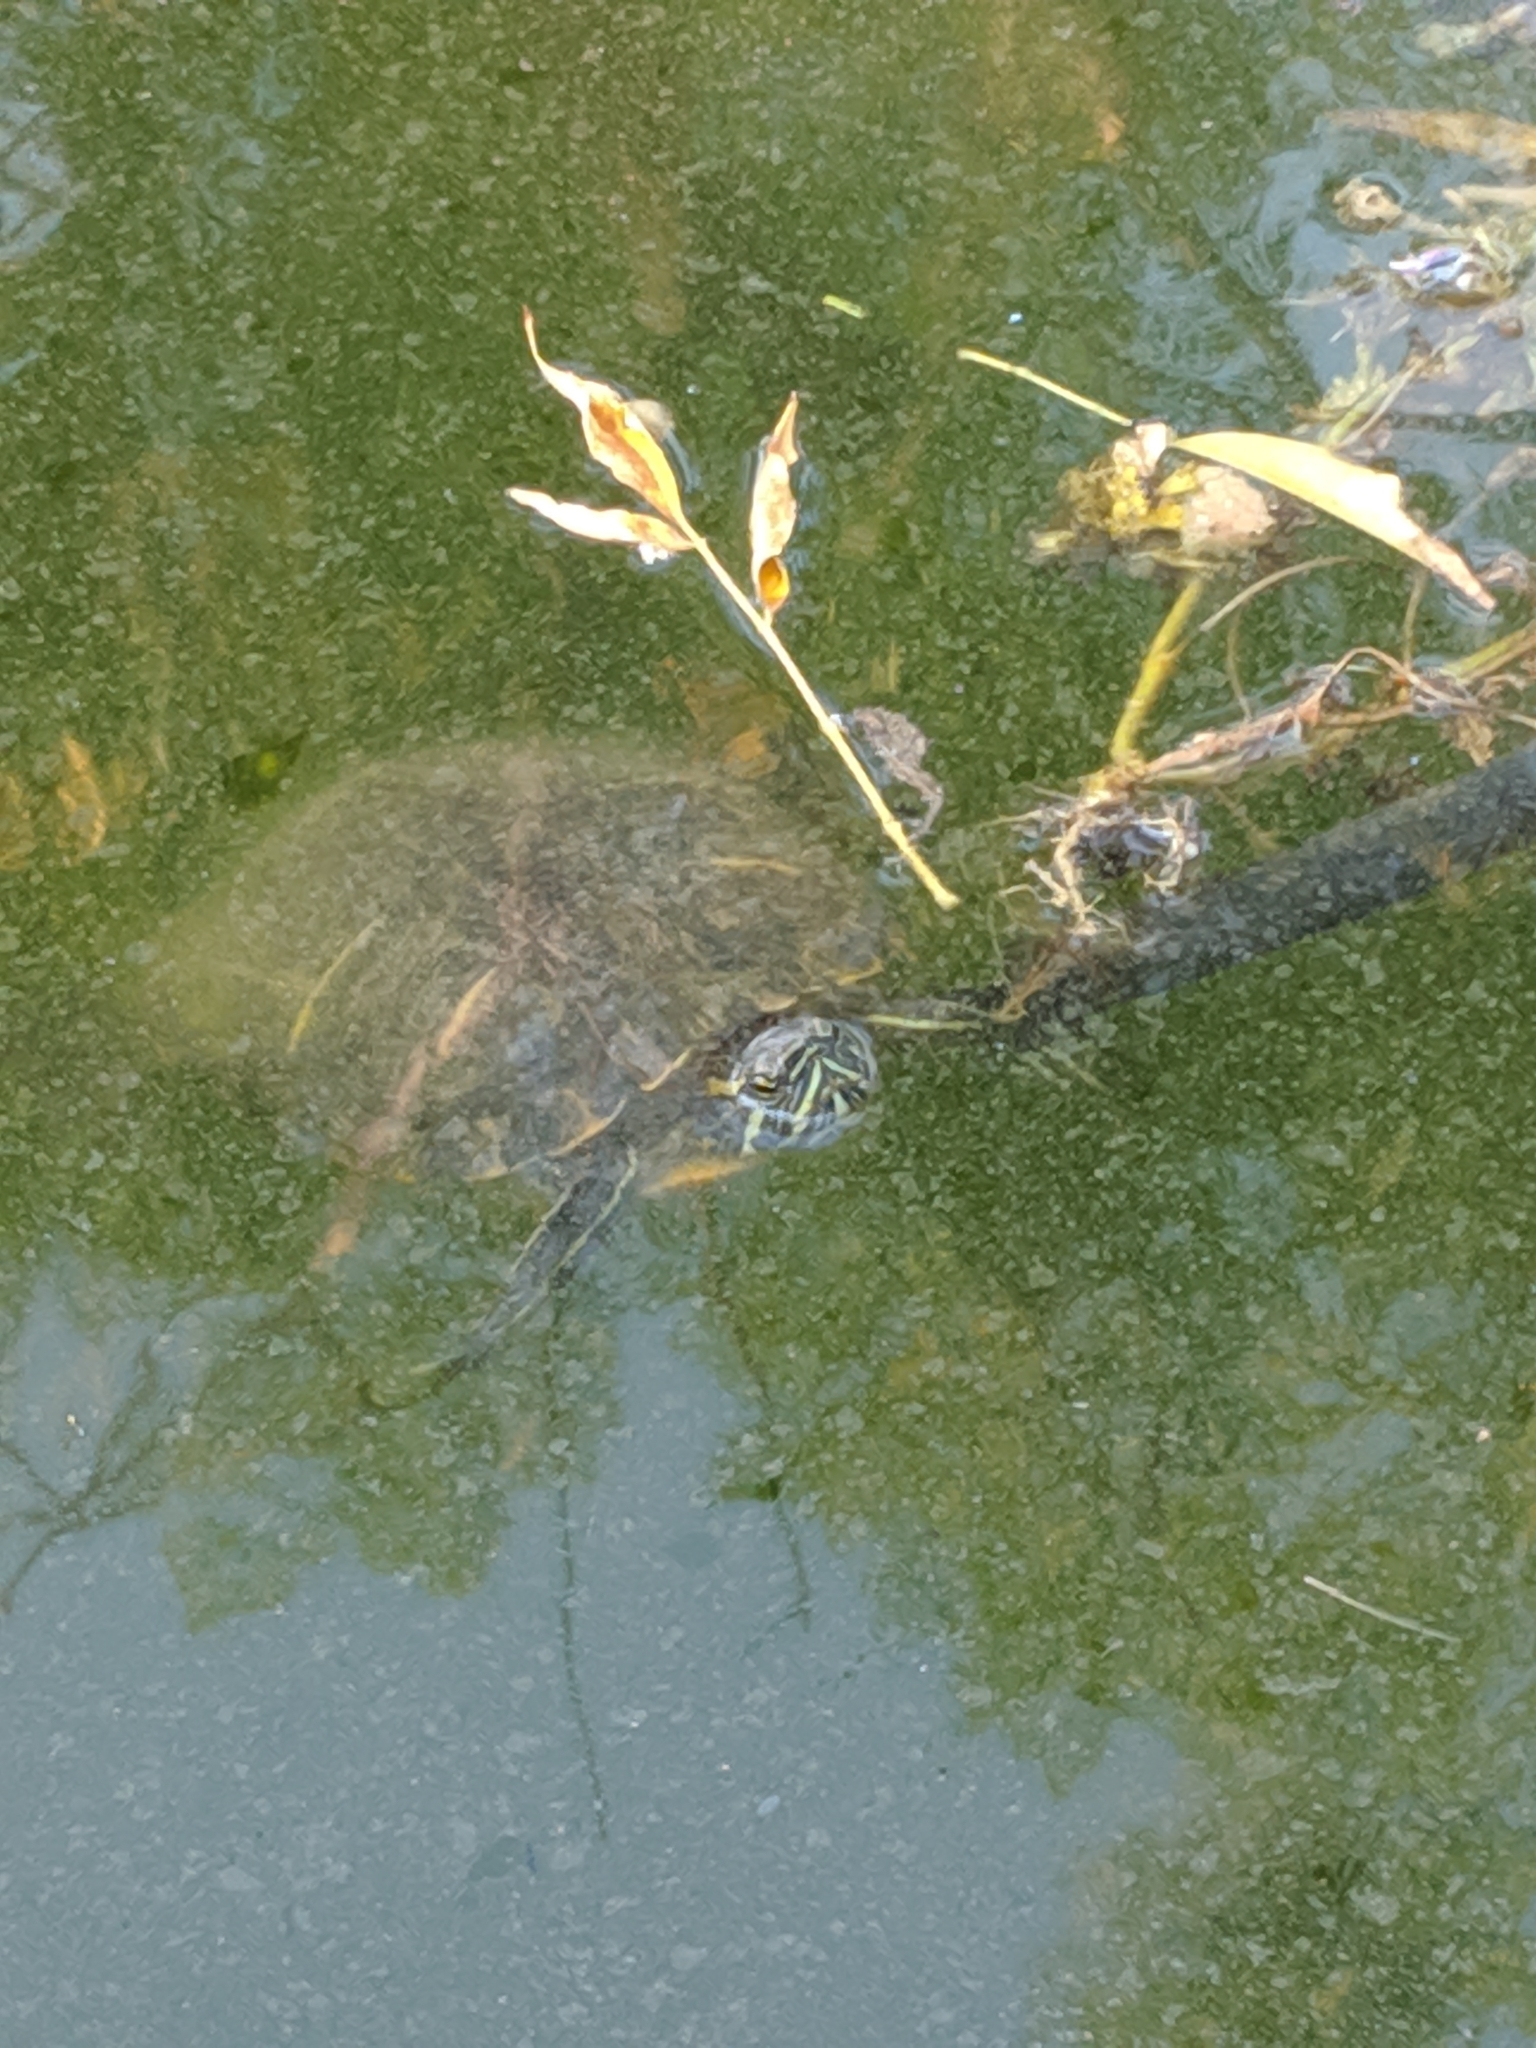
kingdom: Animalia
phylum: Chordata
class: Testudines
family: Emydidae
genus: Trachemys
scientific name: Trachemys scripta
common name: Slider
